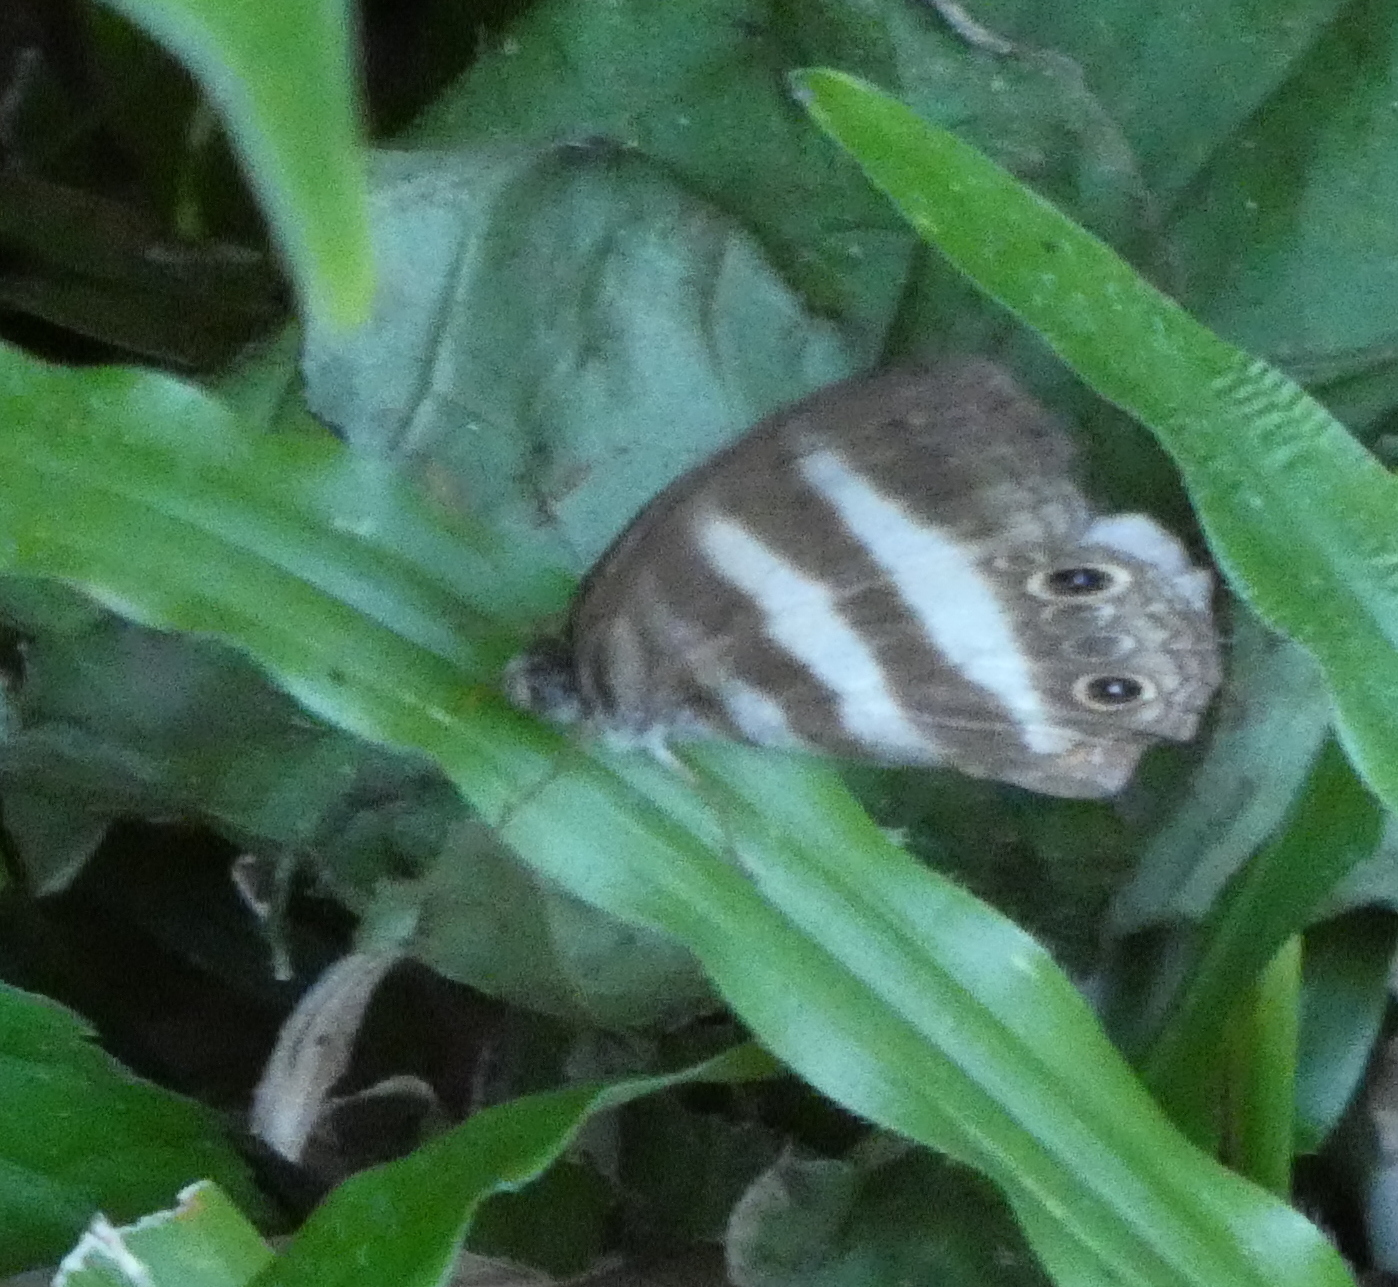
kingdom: Animalia
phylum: Arthropoda
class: Insecta
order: Lepidoptera
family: Nymphalidae
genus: Pareuptychia
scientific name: Pareuptychia hesione
